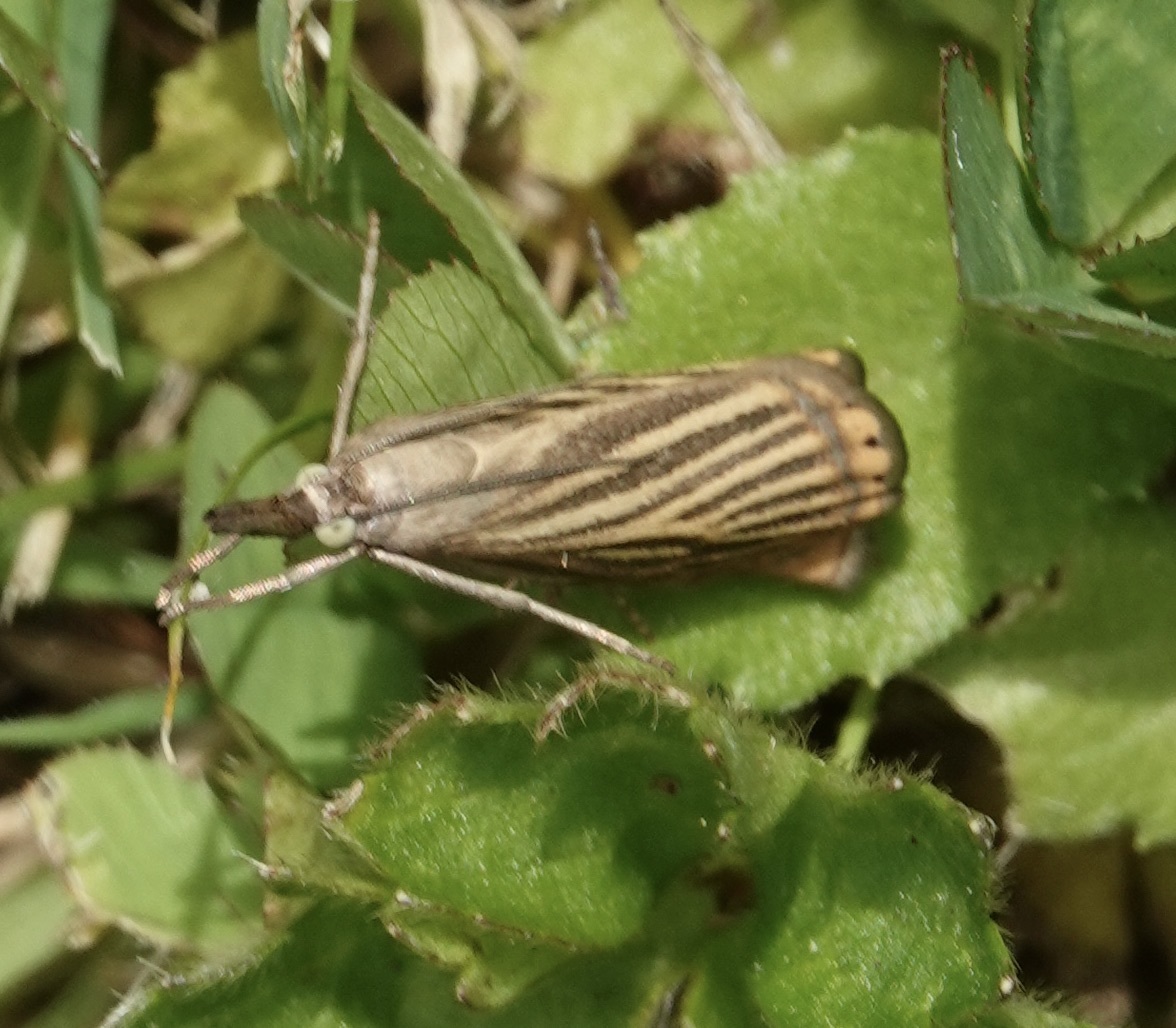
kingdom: Animalia
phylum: Arthropoda
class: Insecta
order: Lepidoptera
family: Crambidae
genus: Chrysoteuchia
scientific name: Chrysoteuchia culmella
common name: Garden grass-veneer
